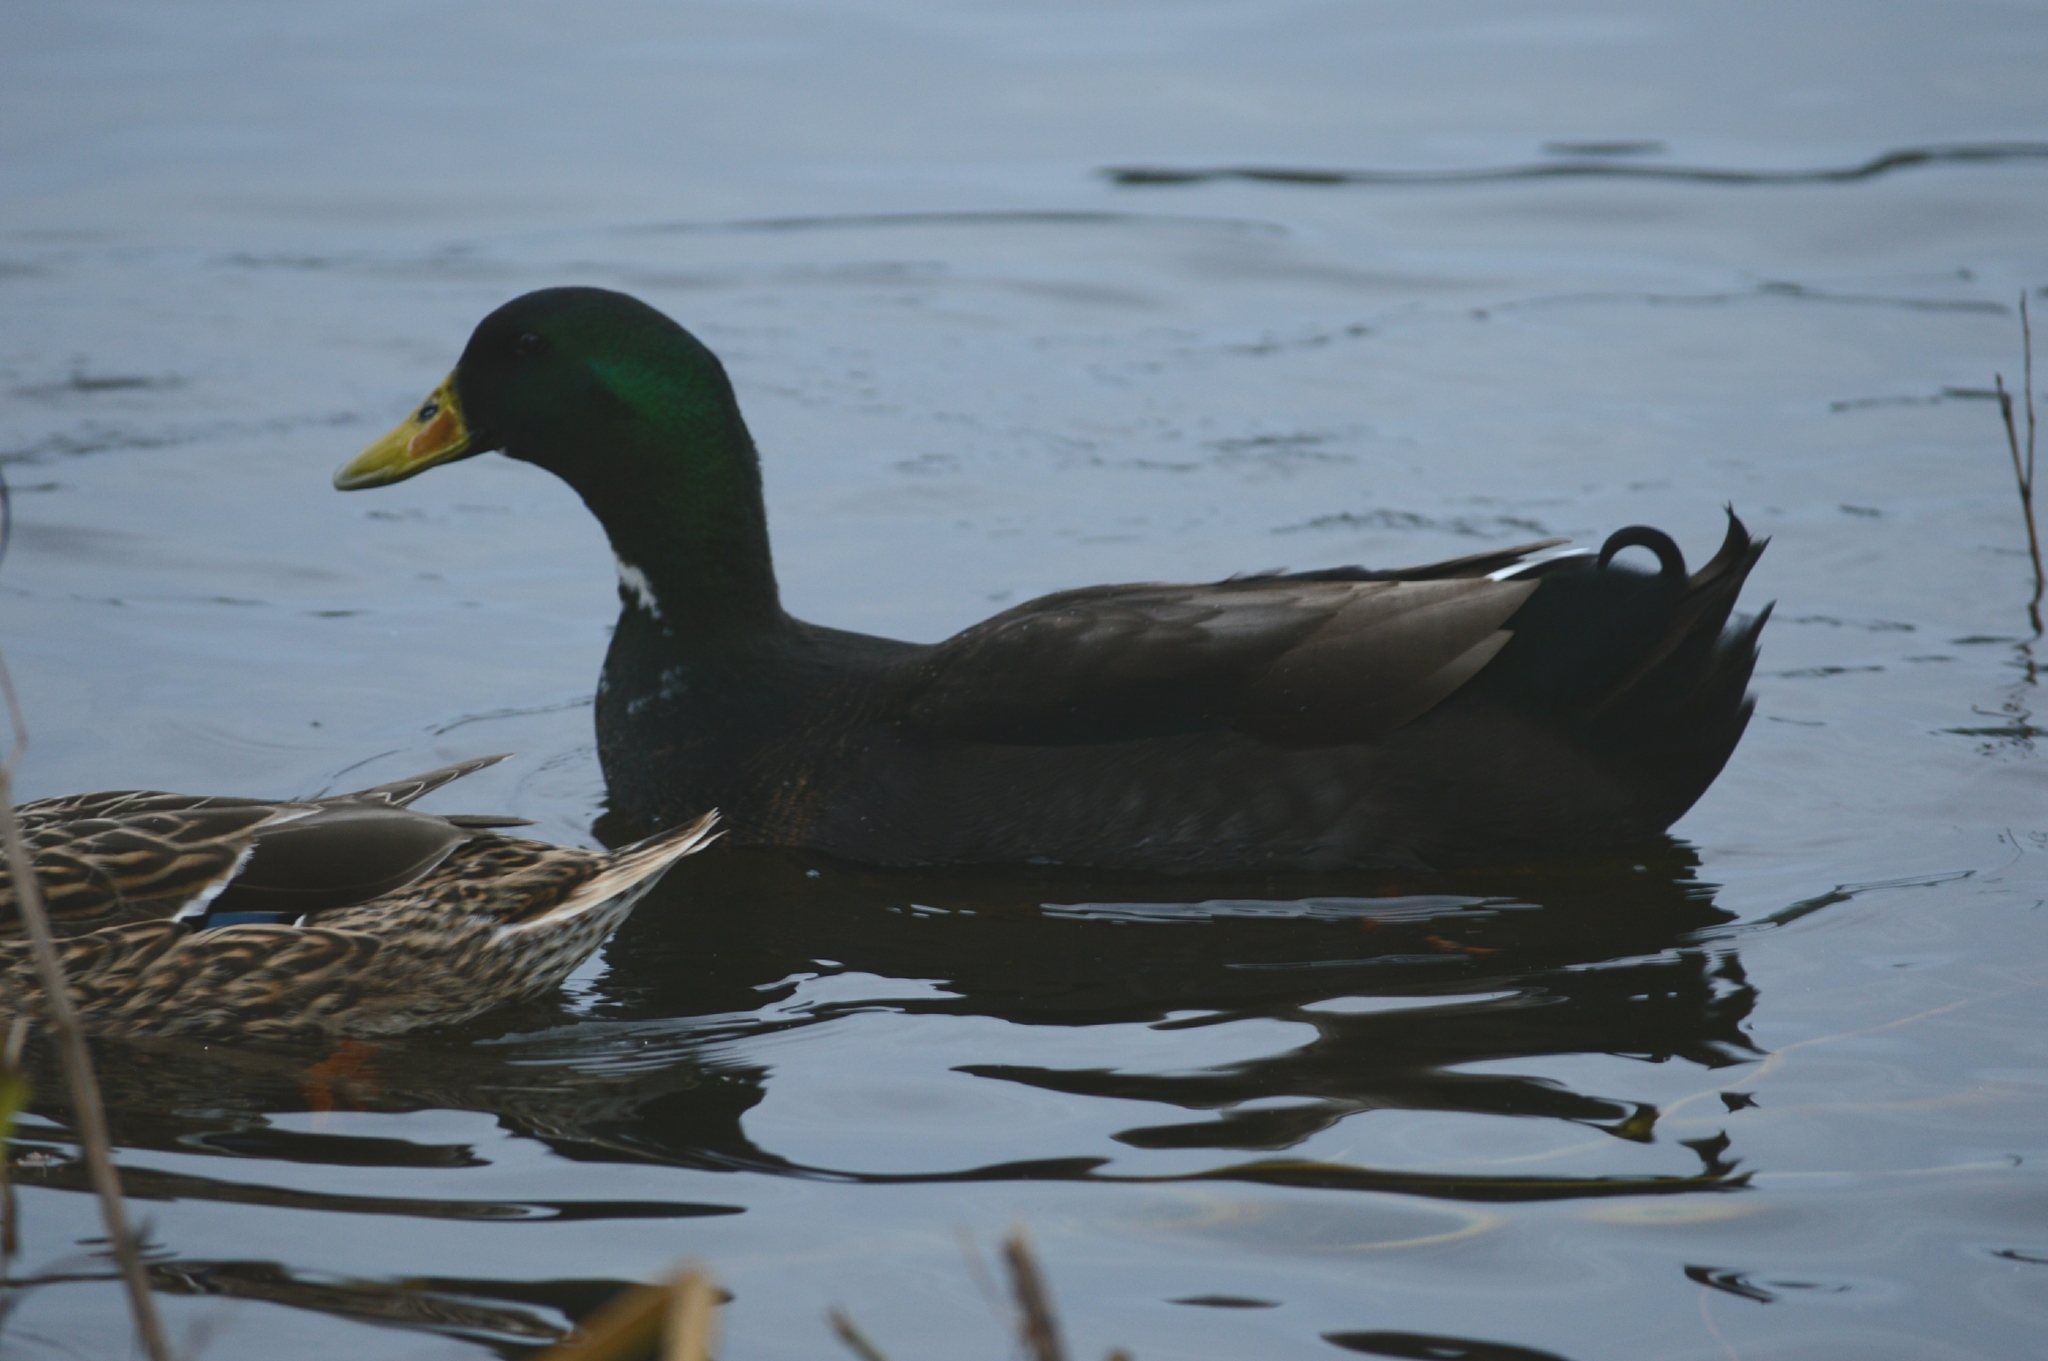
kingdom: Animalia
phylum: Chordata
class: Aves
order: Anseriformes
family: Anatidae
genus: Anas
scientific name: Anas platyrhynchos
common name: Mallard
